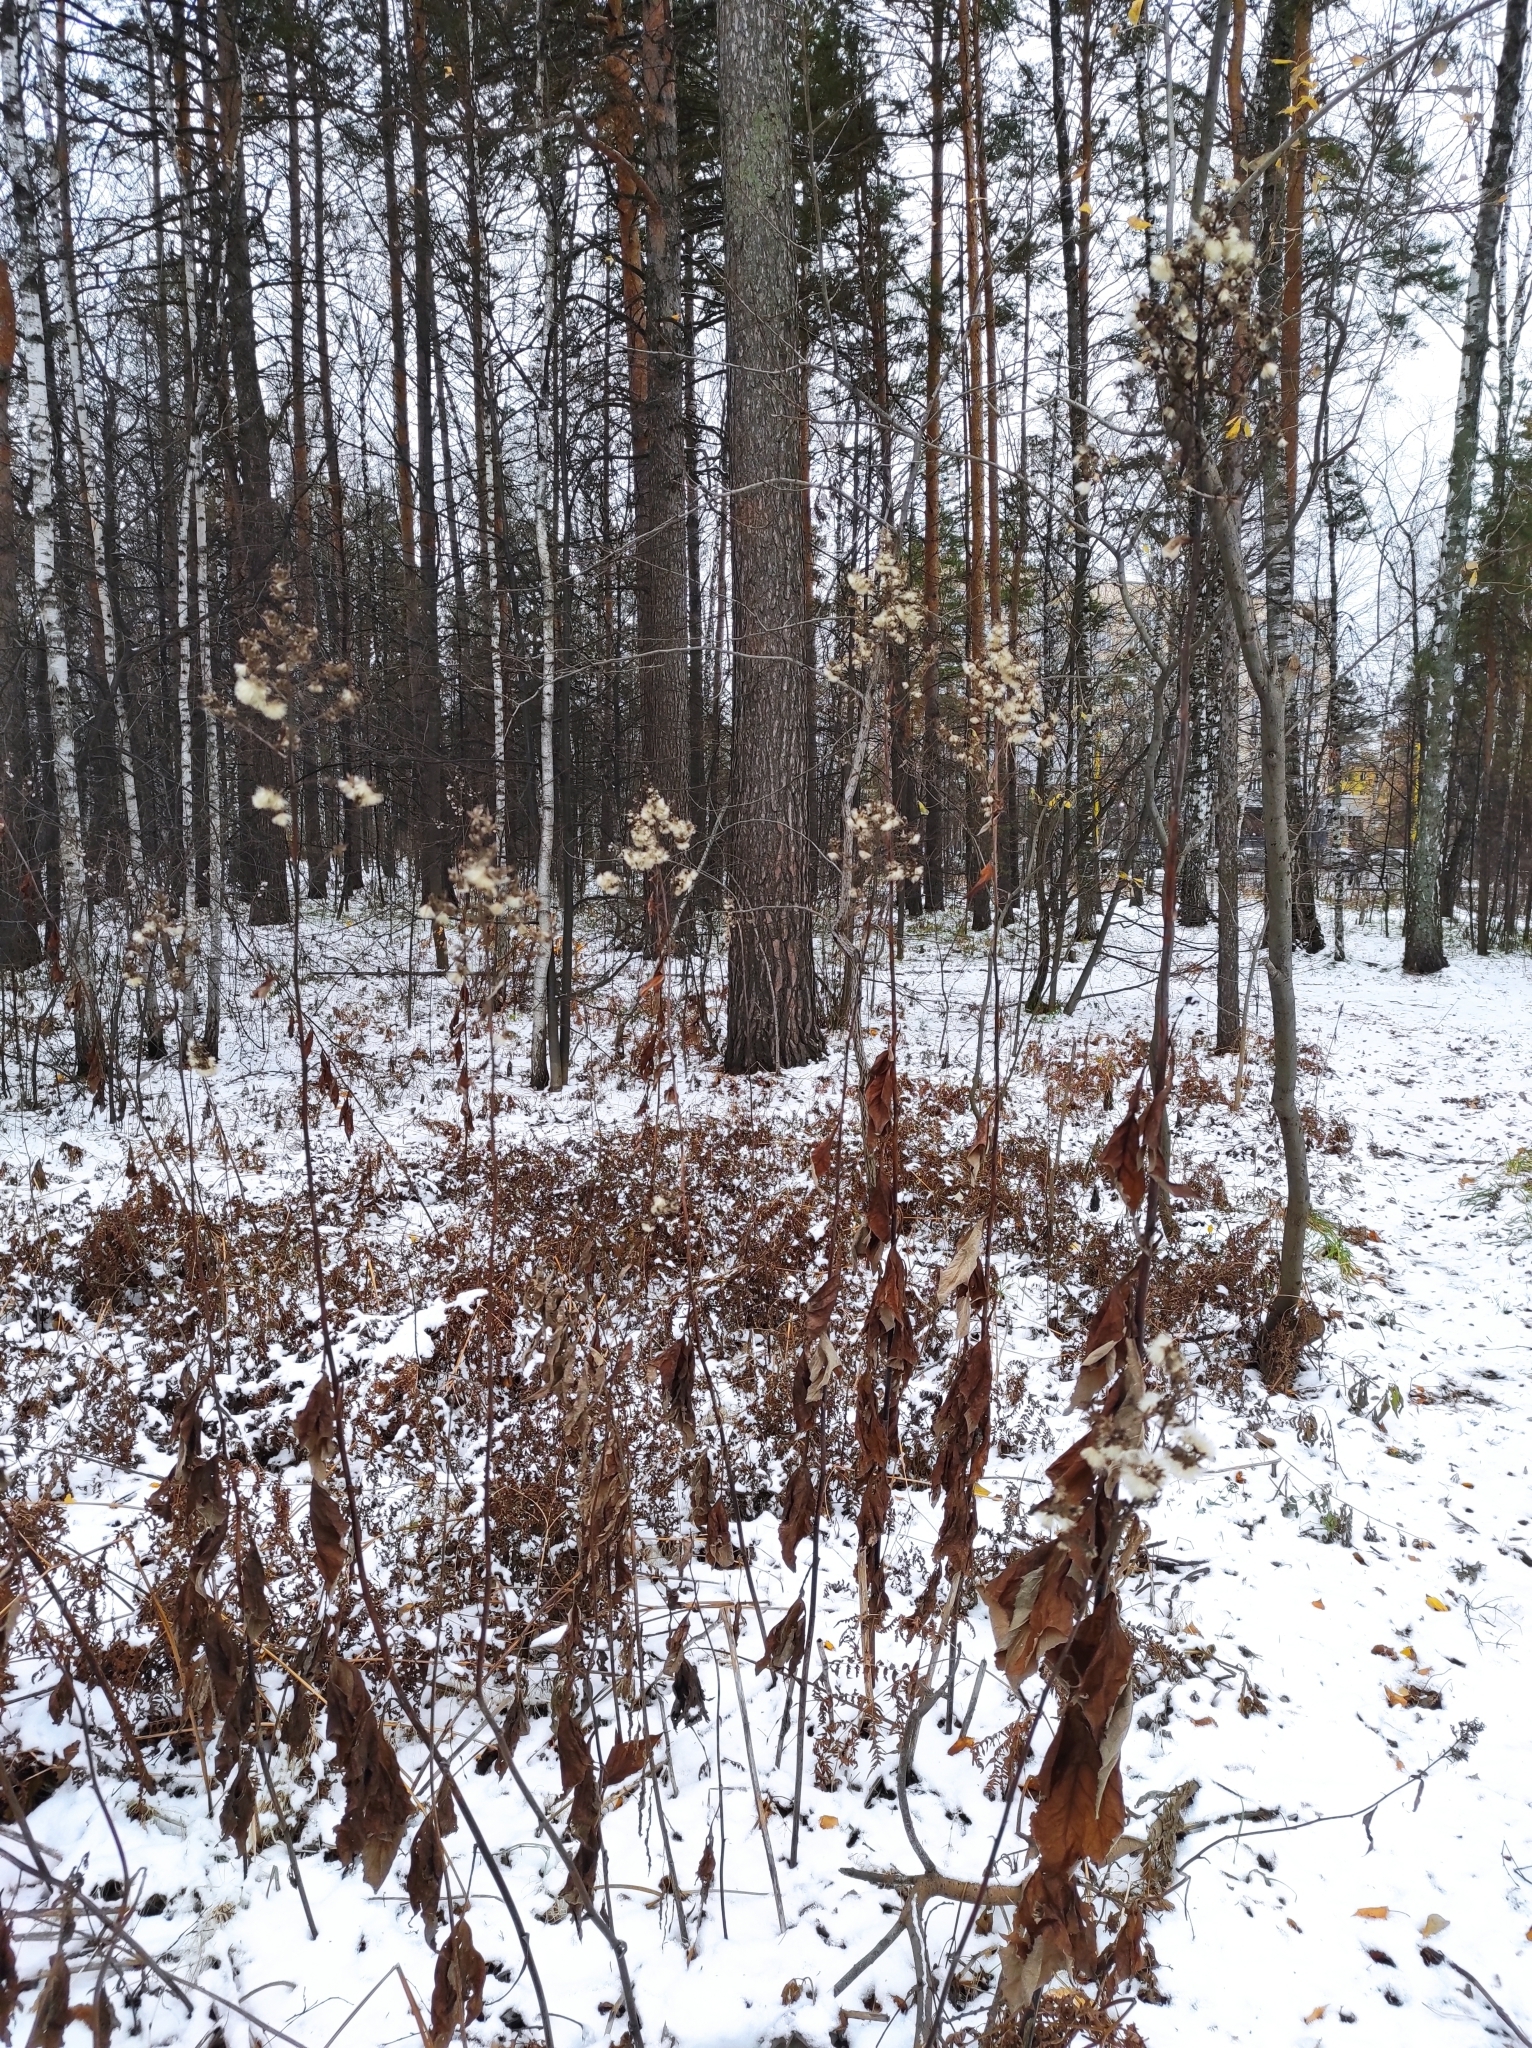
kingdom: Plantae
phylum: Tracheophyta
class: Magnoliopsida
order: Asterales
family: Asteraceae
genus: Parasenecio
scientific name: Parasenecio hastatus
